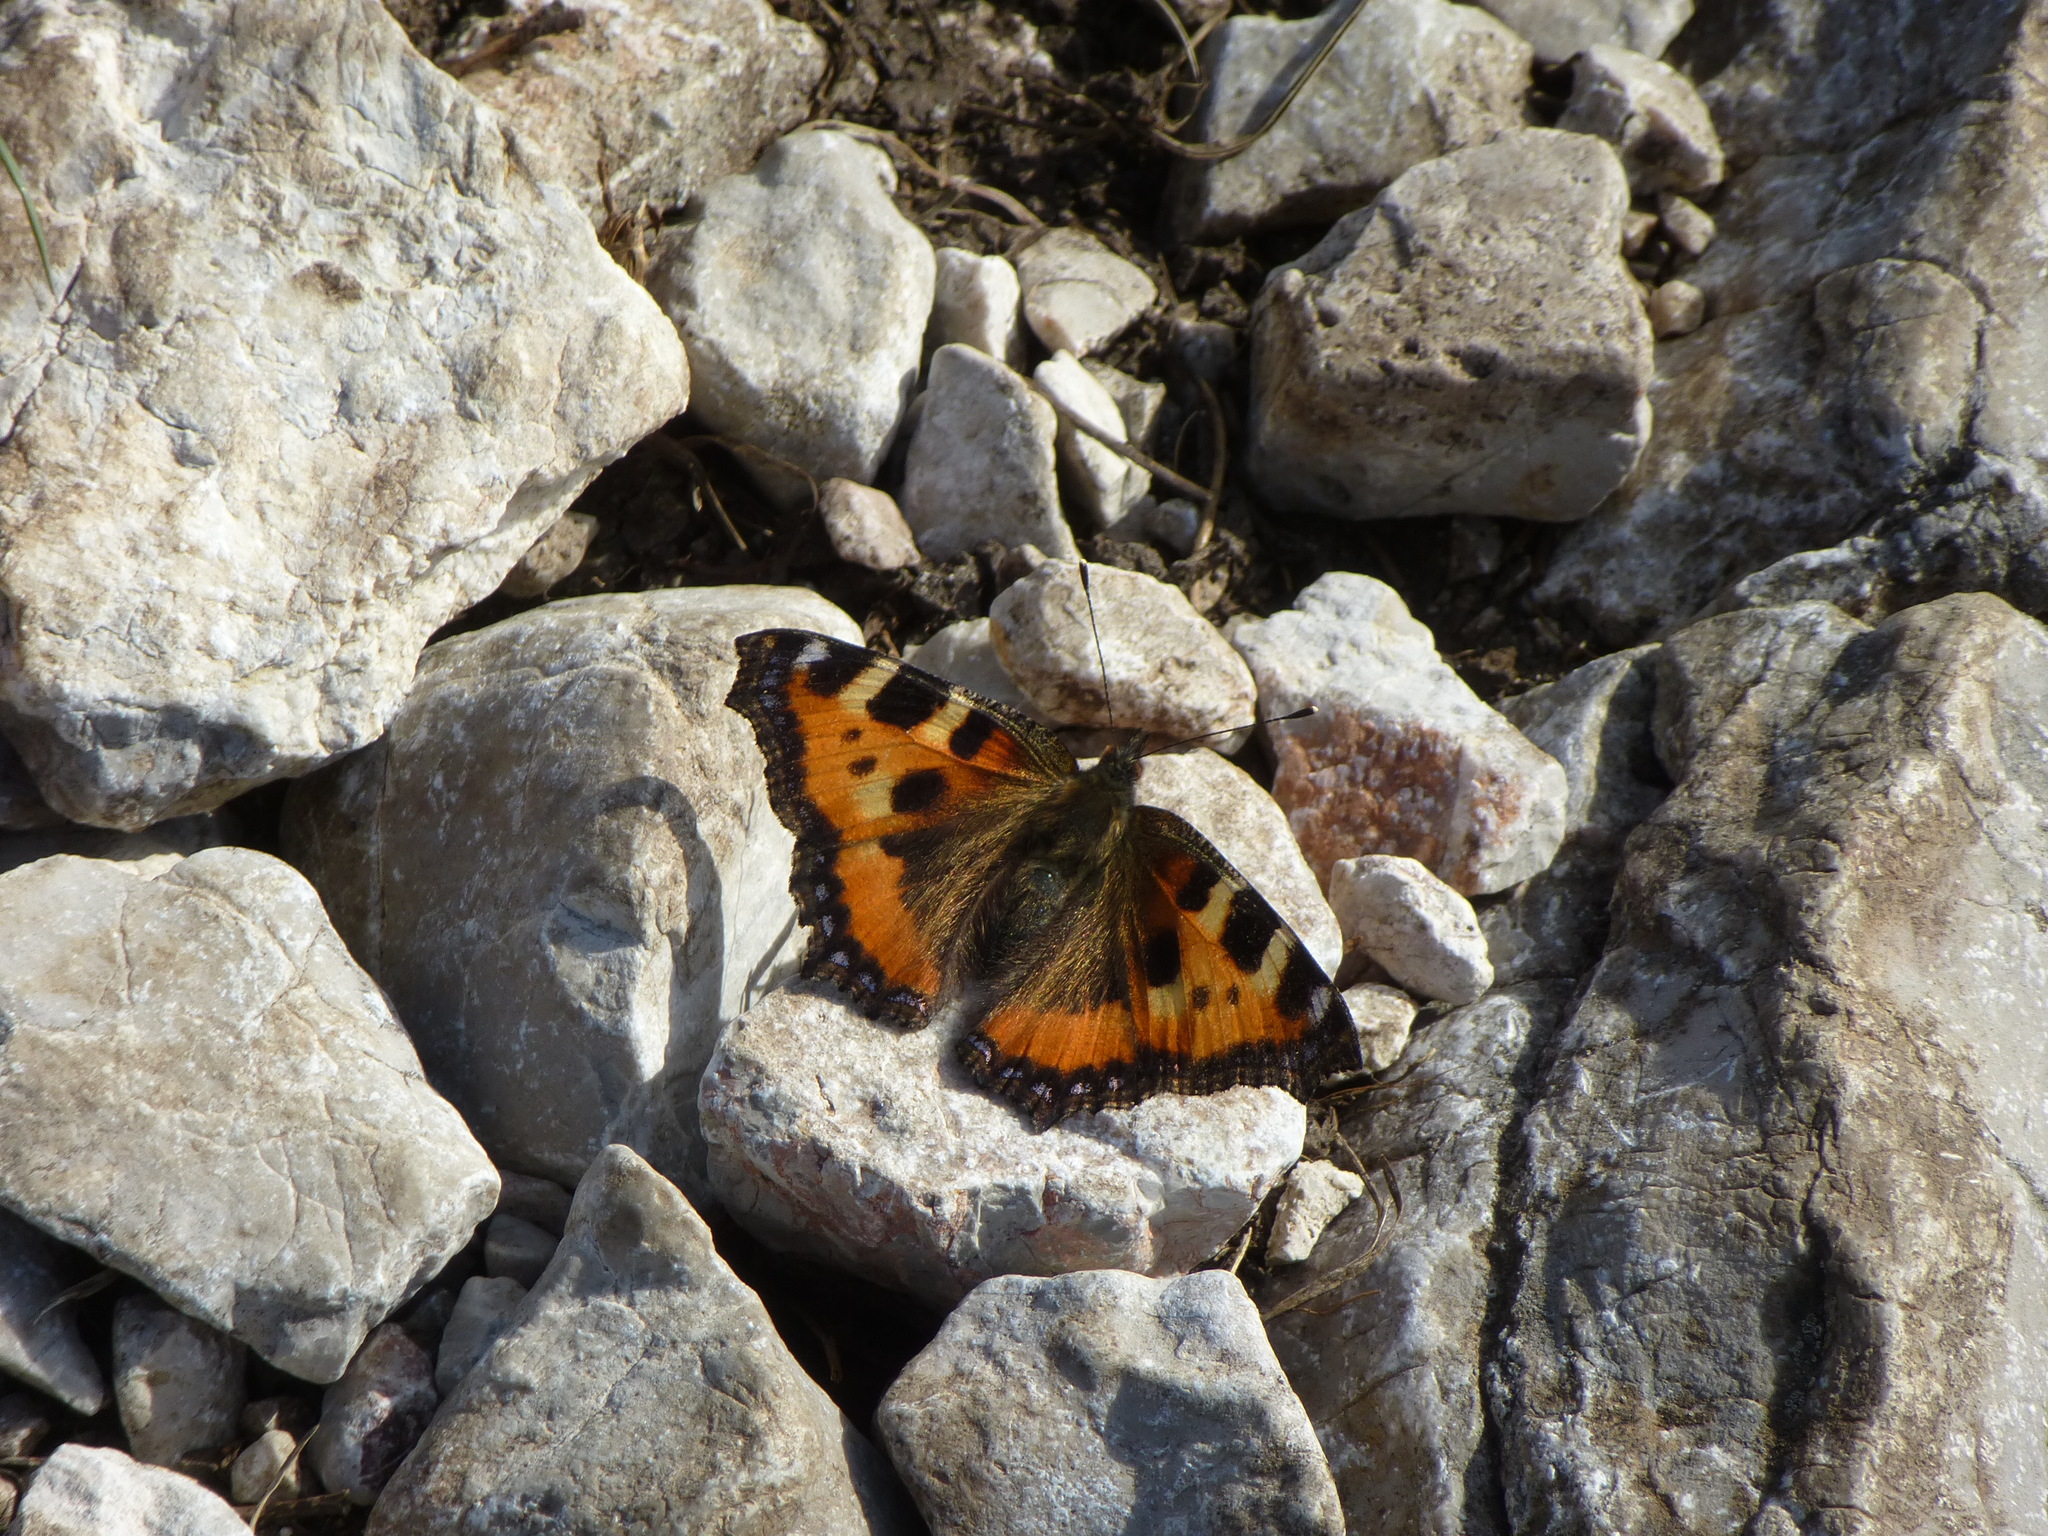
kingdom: Animalia
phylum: Arthropoda
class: Insecta
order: Lepidoptera
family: Nymphalidae
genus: Aglais
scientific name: Aglais urticae
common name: Small tortoiseshell
